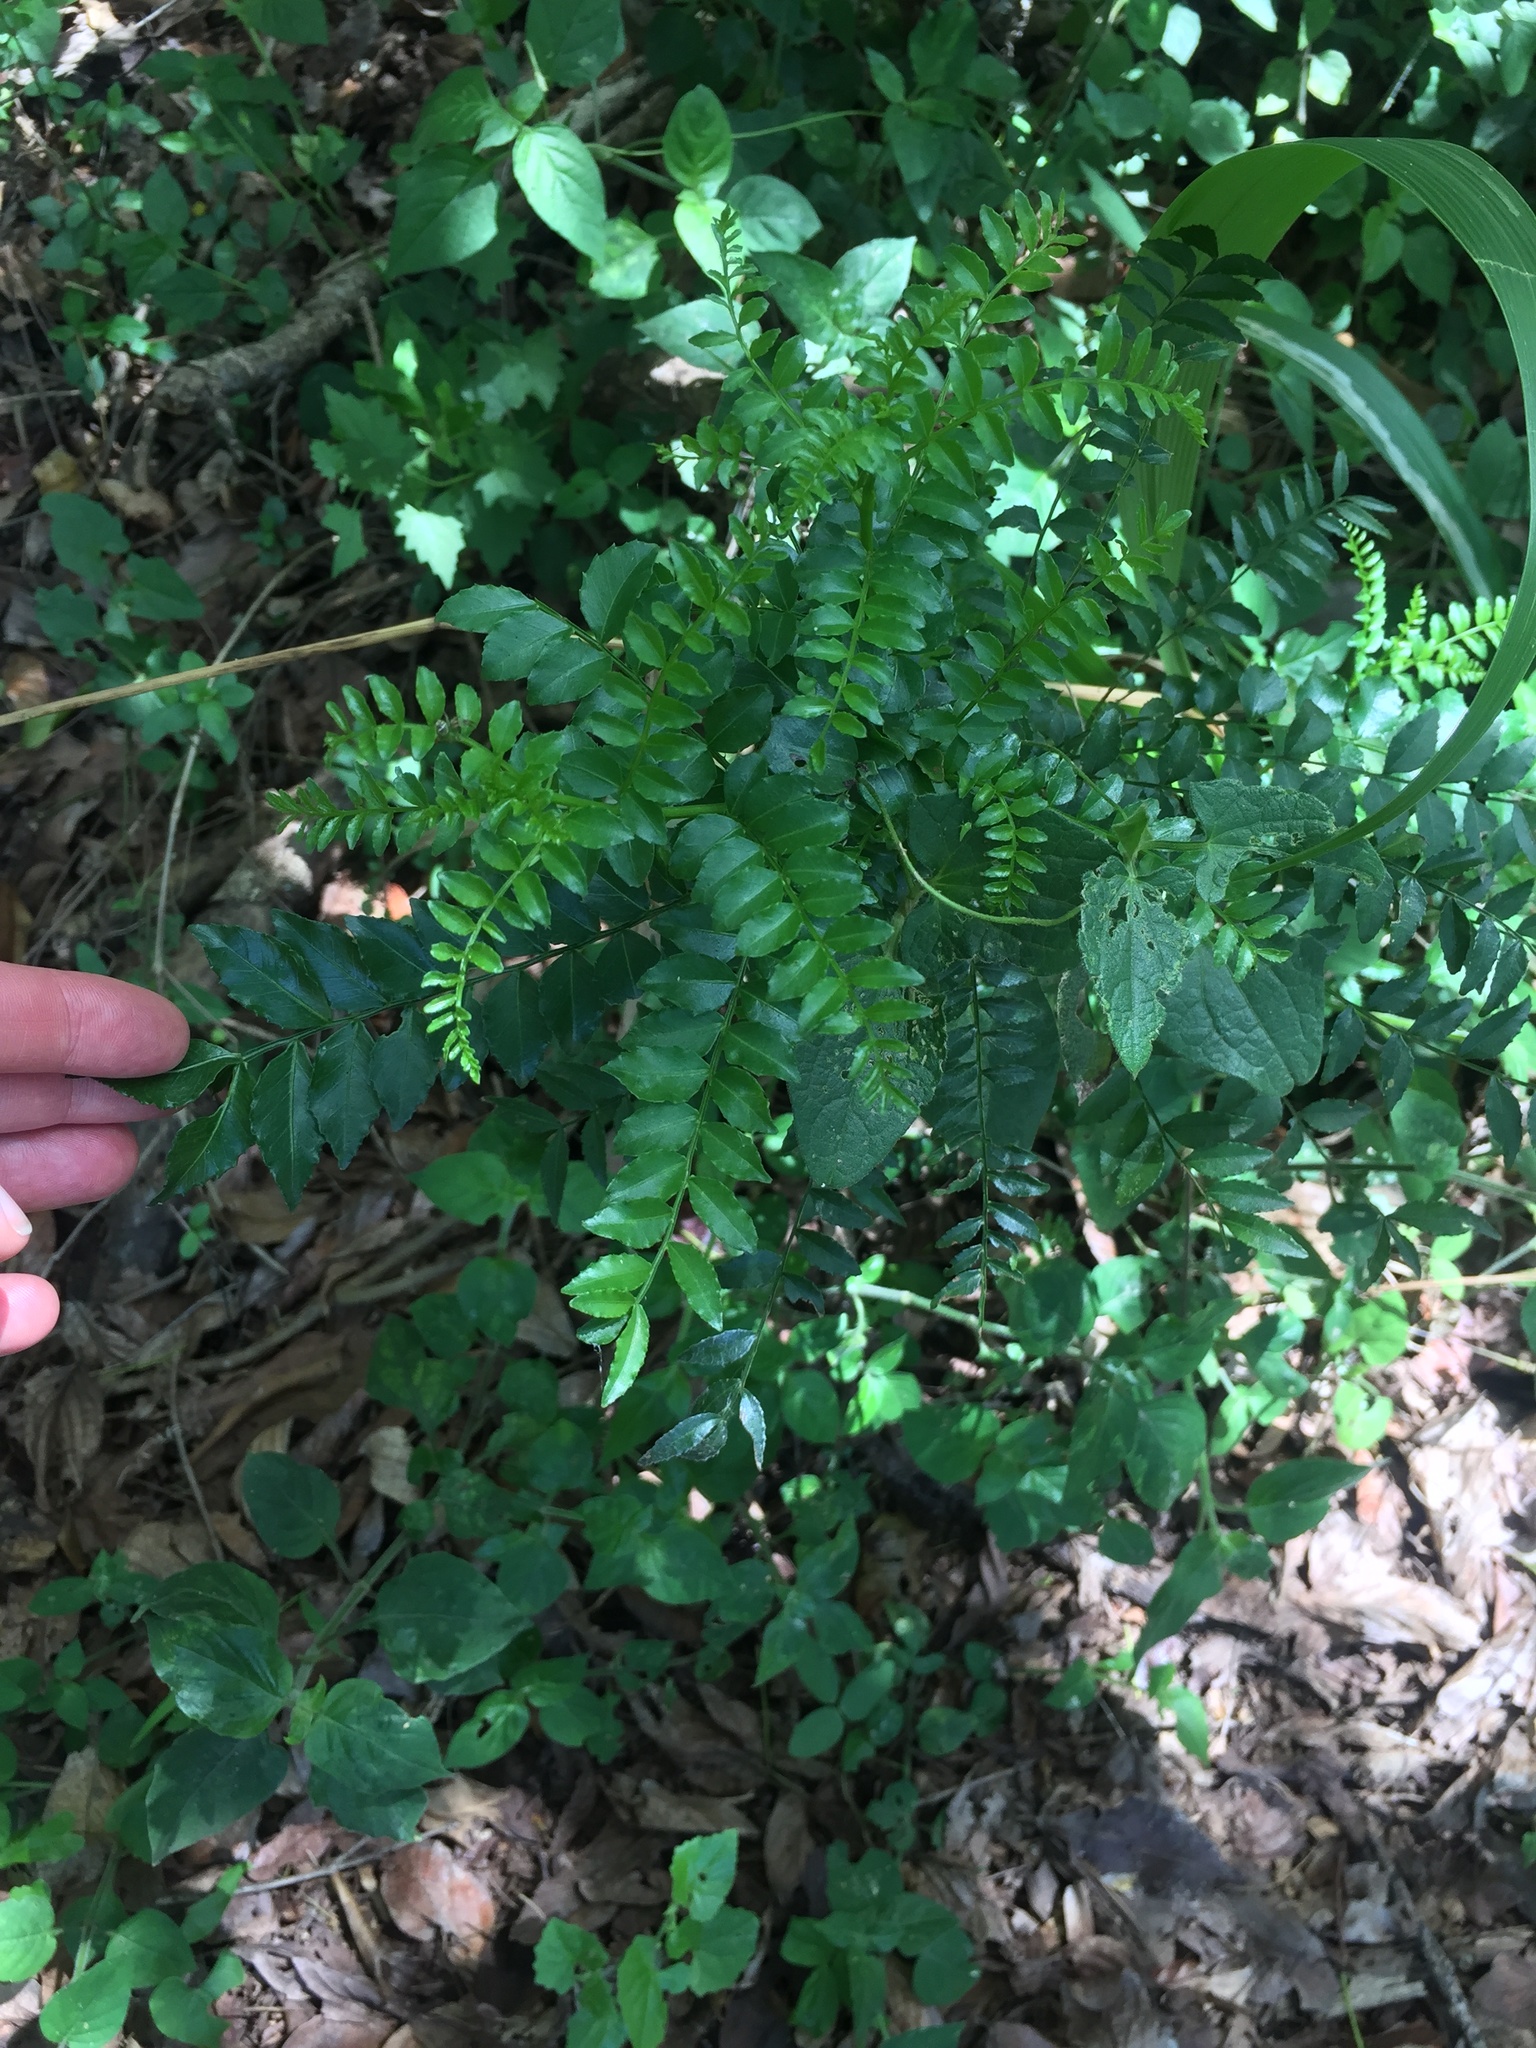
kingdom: Plantae
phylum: Tracheophyta
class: Magnoliopsida
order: Sapindales
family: Rutaceae
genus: Zanthoxylum
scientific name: Zanthoxylum capense
